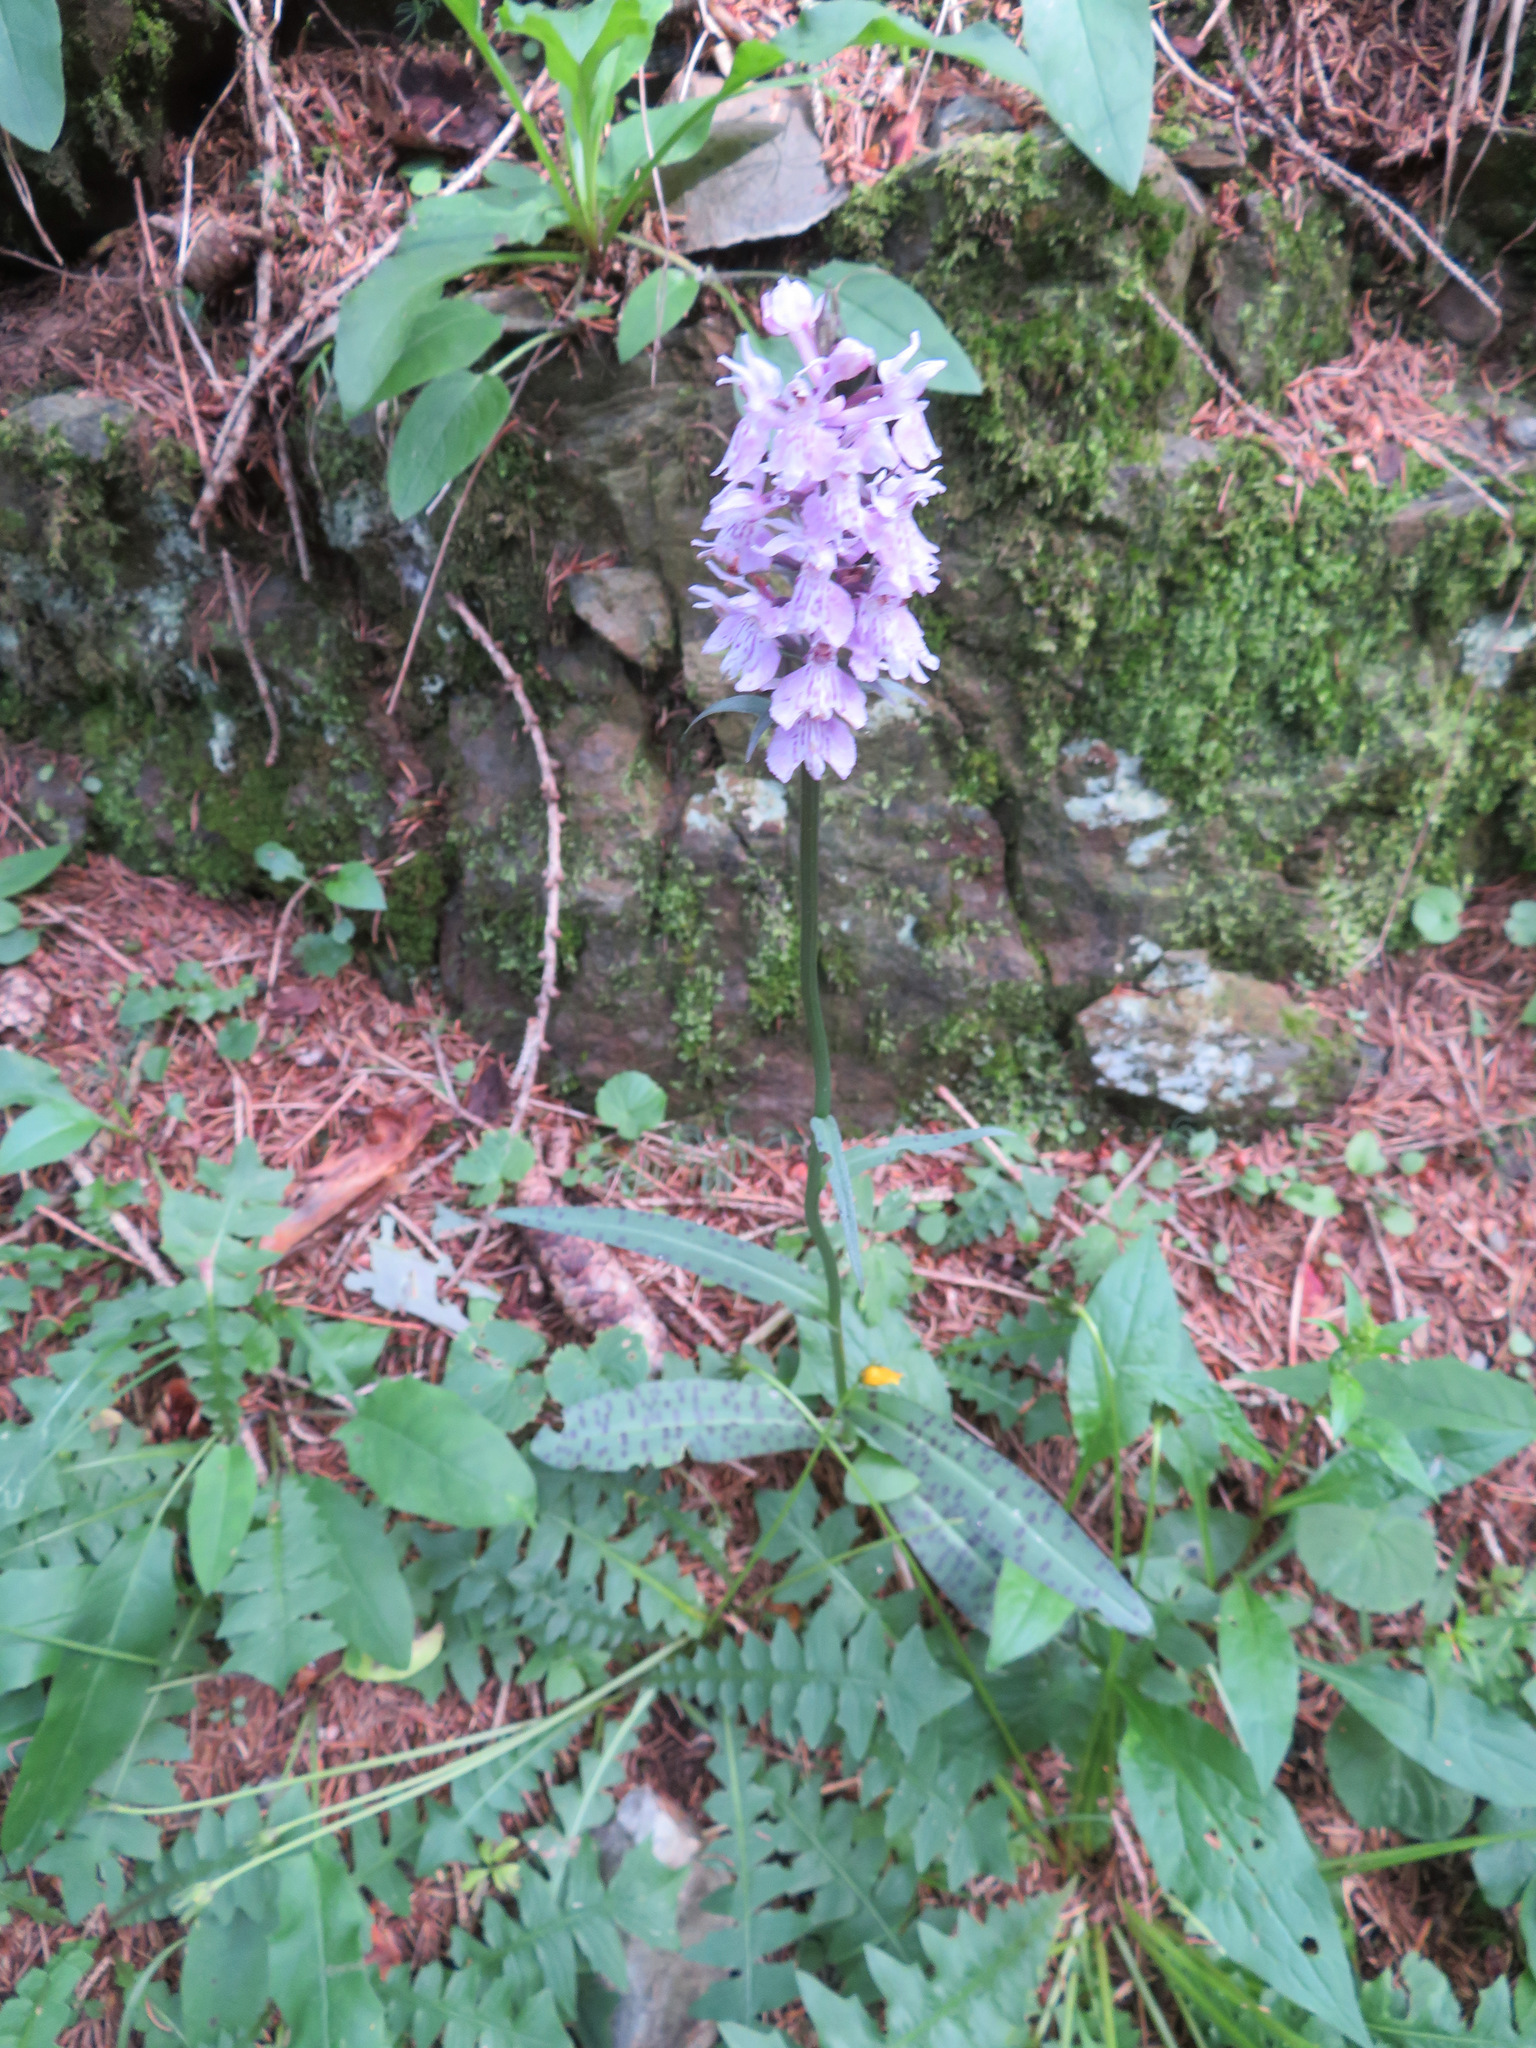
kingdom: Plantae
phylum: Tracheophyta
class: Liliopsida
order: Asparagales
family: Orchidaceae
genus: Dactylorhiza
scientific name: Dactylorhiza maculata
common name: Heath spotted-orchid
